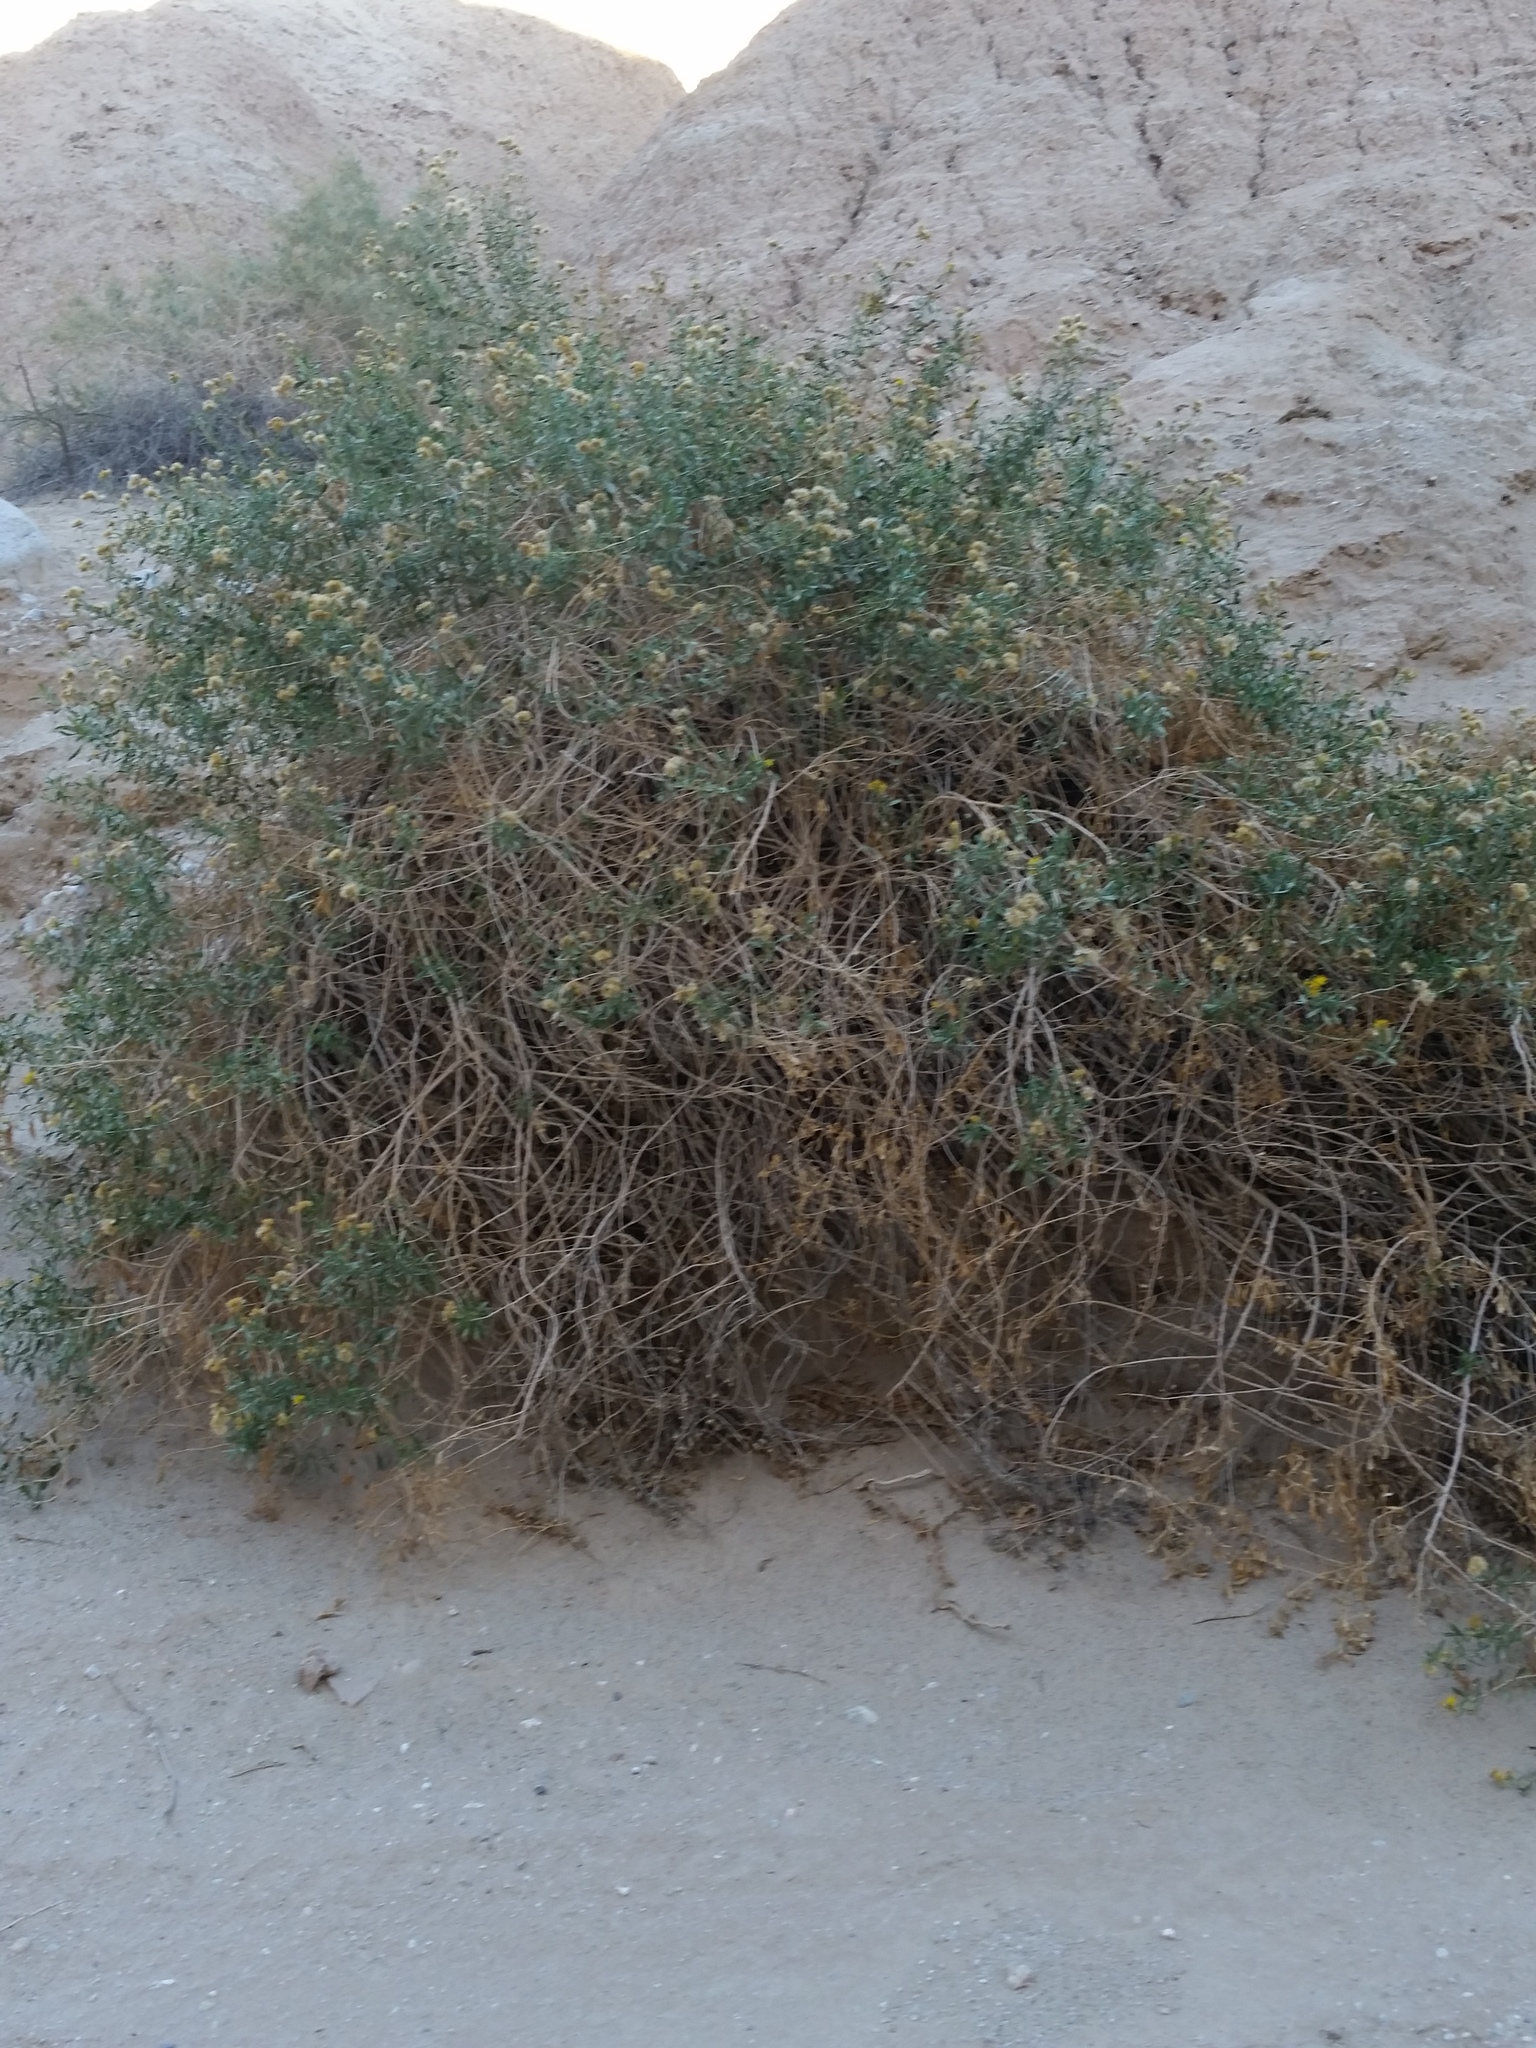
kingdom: Plantae
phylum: Tracheophyta
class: Magnoliopsida
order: Asterales
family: Asteraceae
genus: Isocoma
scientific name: Isocoma acradenia
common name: Alkali jimmyweed
